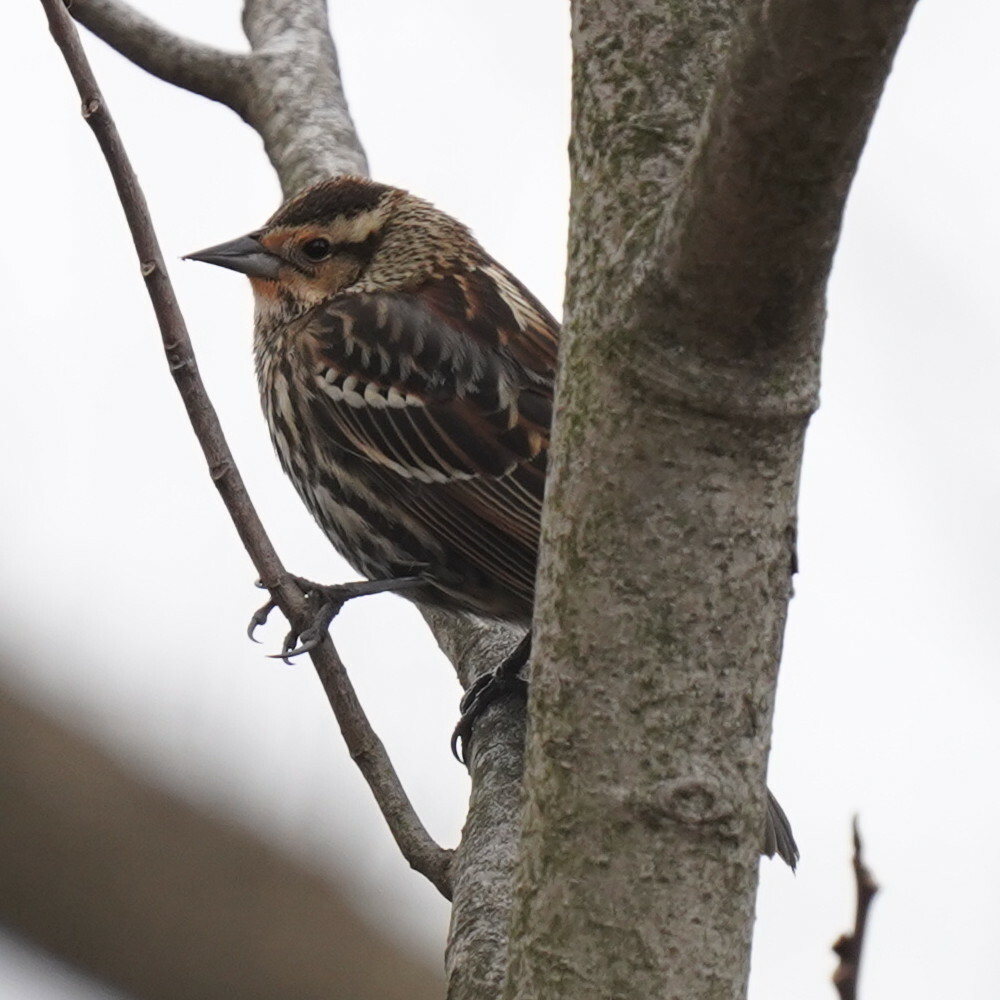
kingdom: Animalia
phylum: Chordata
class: Aves
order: Passeriformes
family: Icteridae
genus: Agelaius
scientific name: Agelaius phoeniceus
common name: Red-winged blackbird
